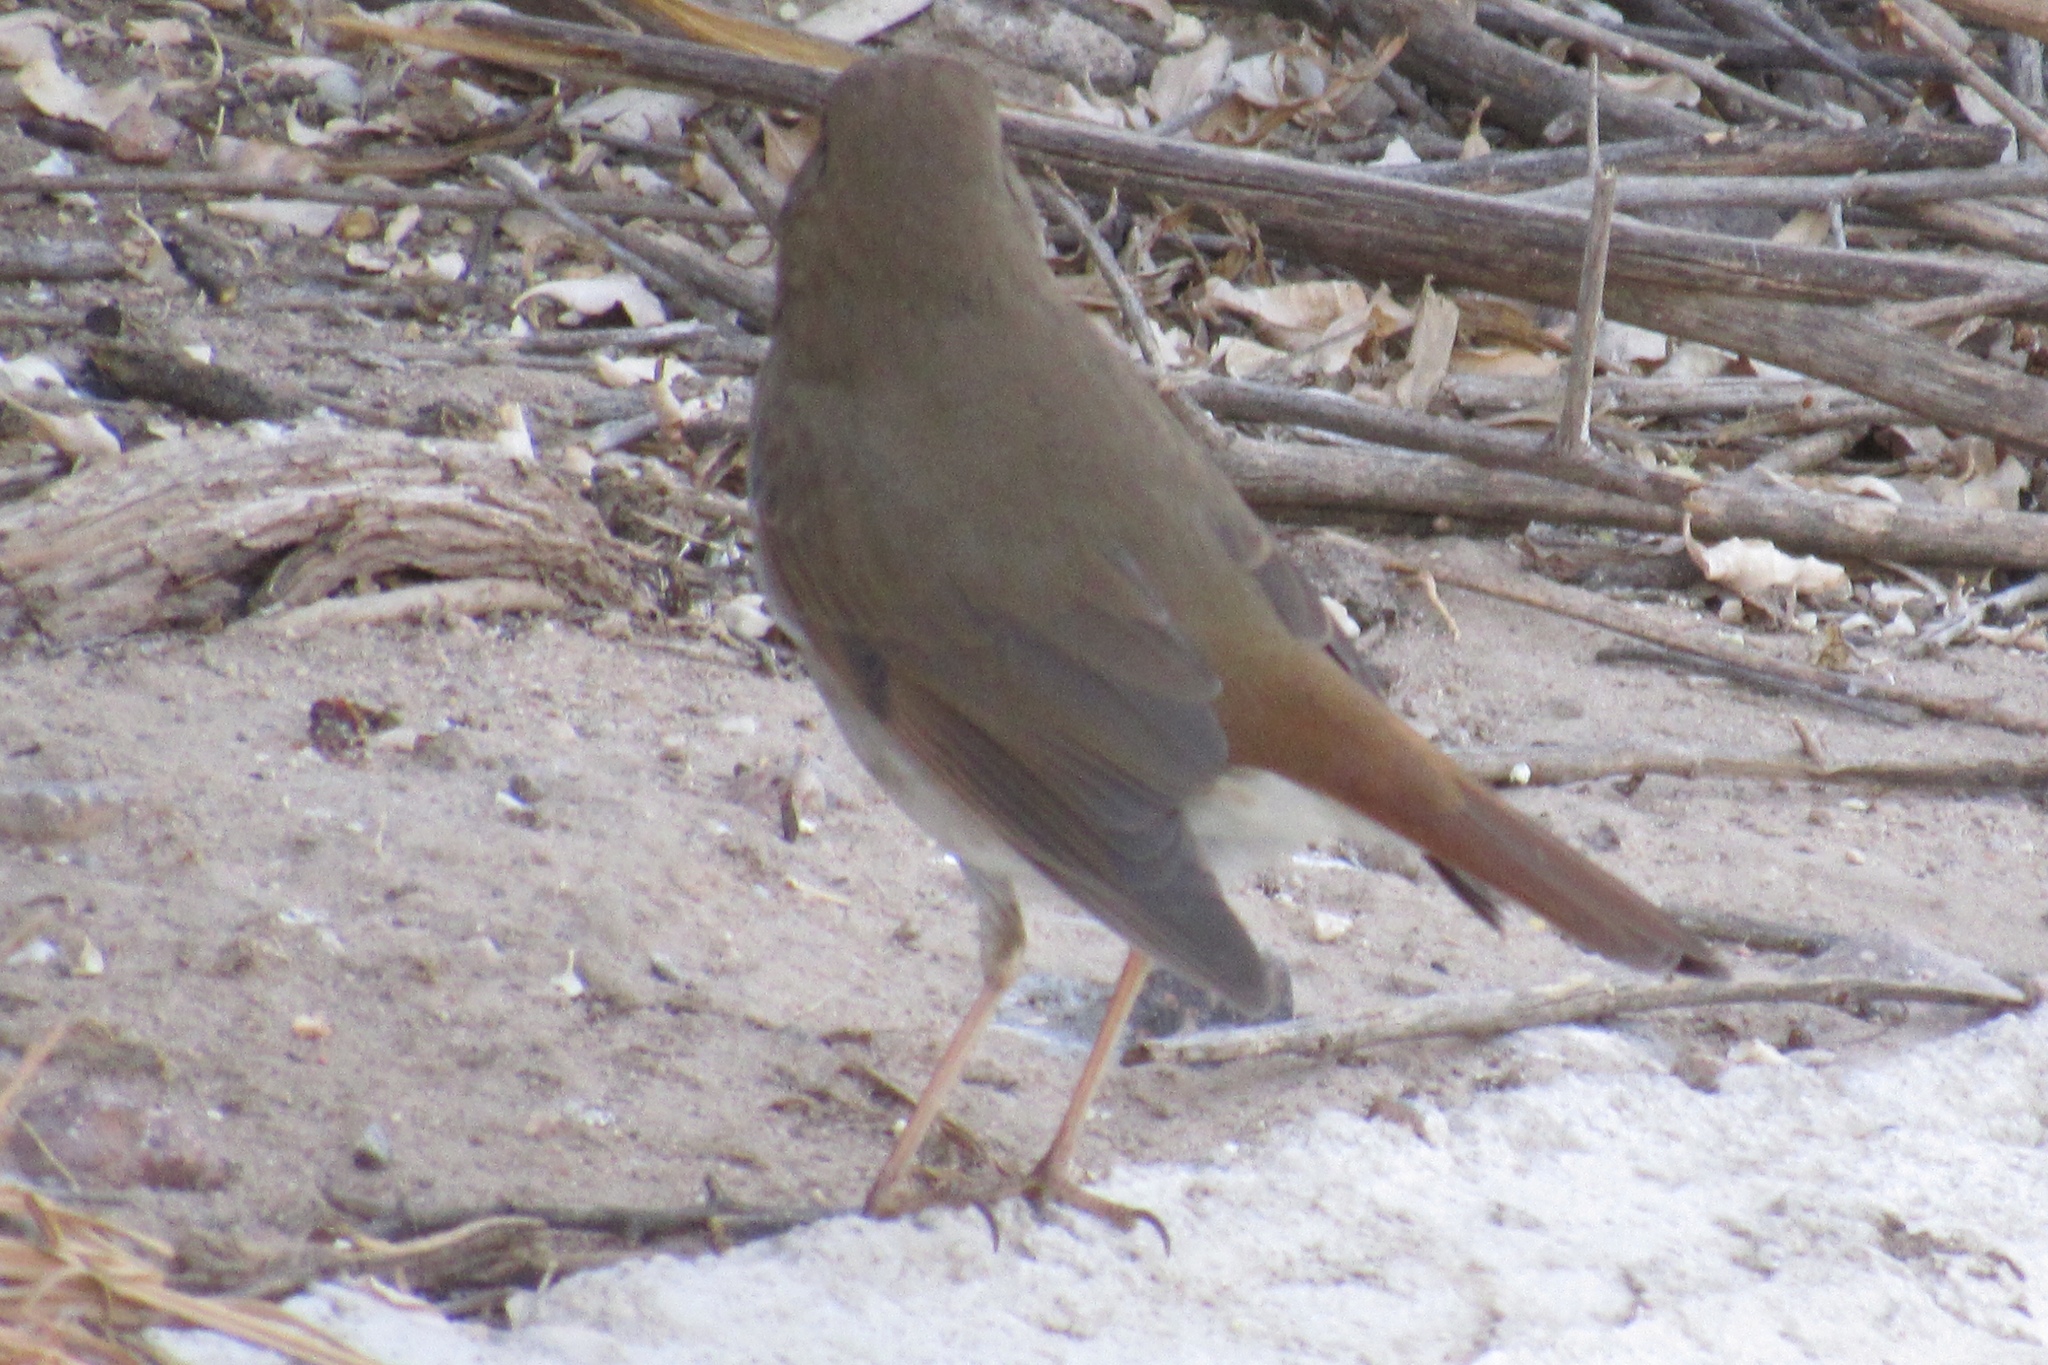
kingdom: Animalia
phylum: Chordata
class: Aves
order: Passeriformes
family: Turdidae
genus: Catharus
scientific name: Catharus guttatus
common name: Hermit thrush
